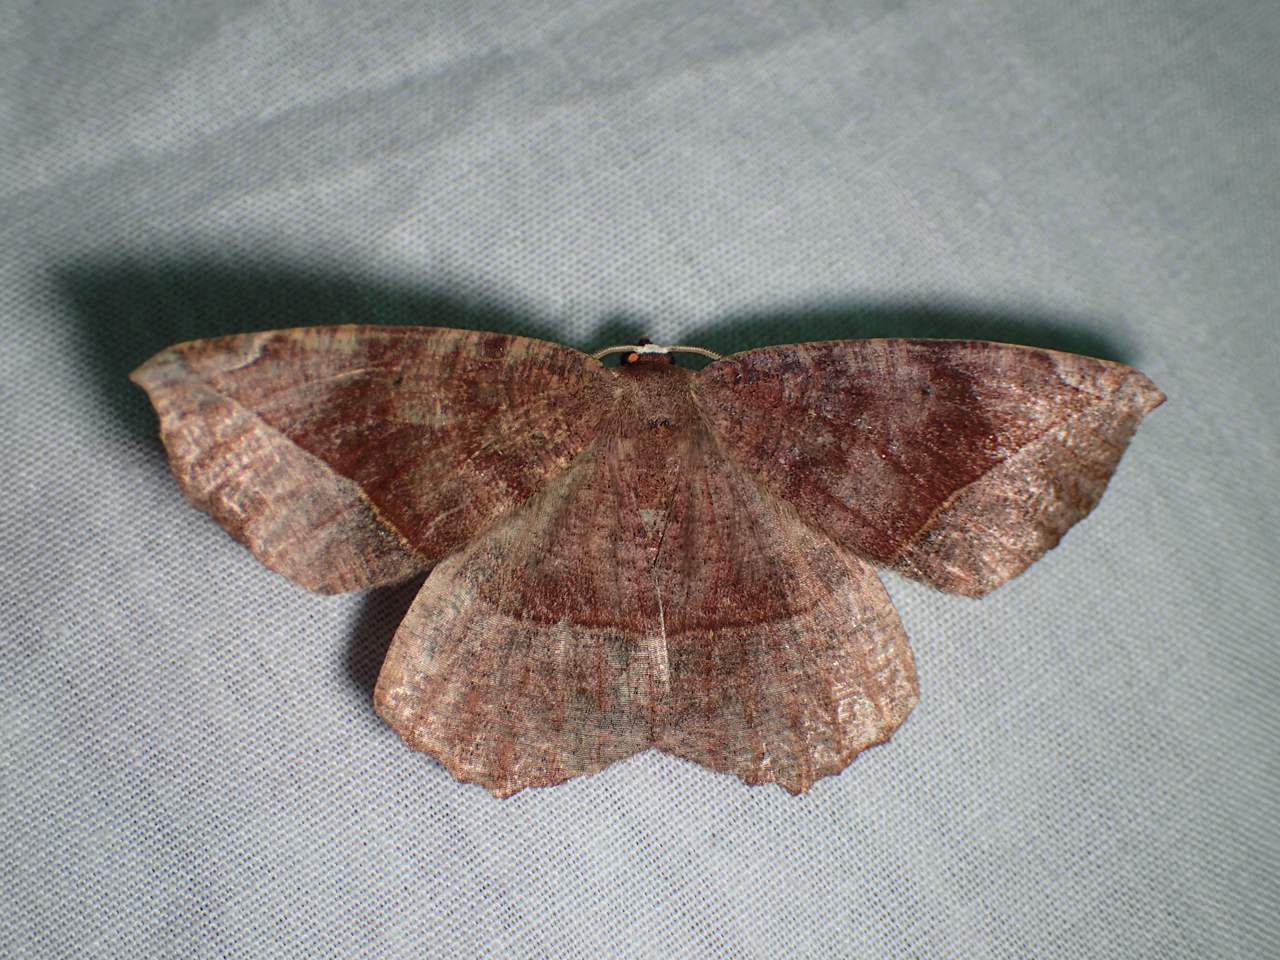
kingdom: Animalia
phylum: Arthropoda
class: Insecta
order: Lepidoptera
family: Geometridae
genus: Eutrapela
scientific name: Eutrapela clemataria
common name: Curved-toothed geometer
